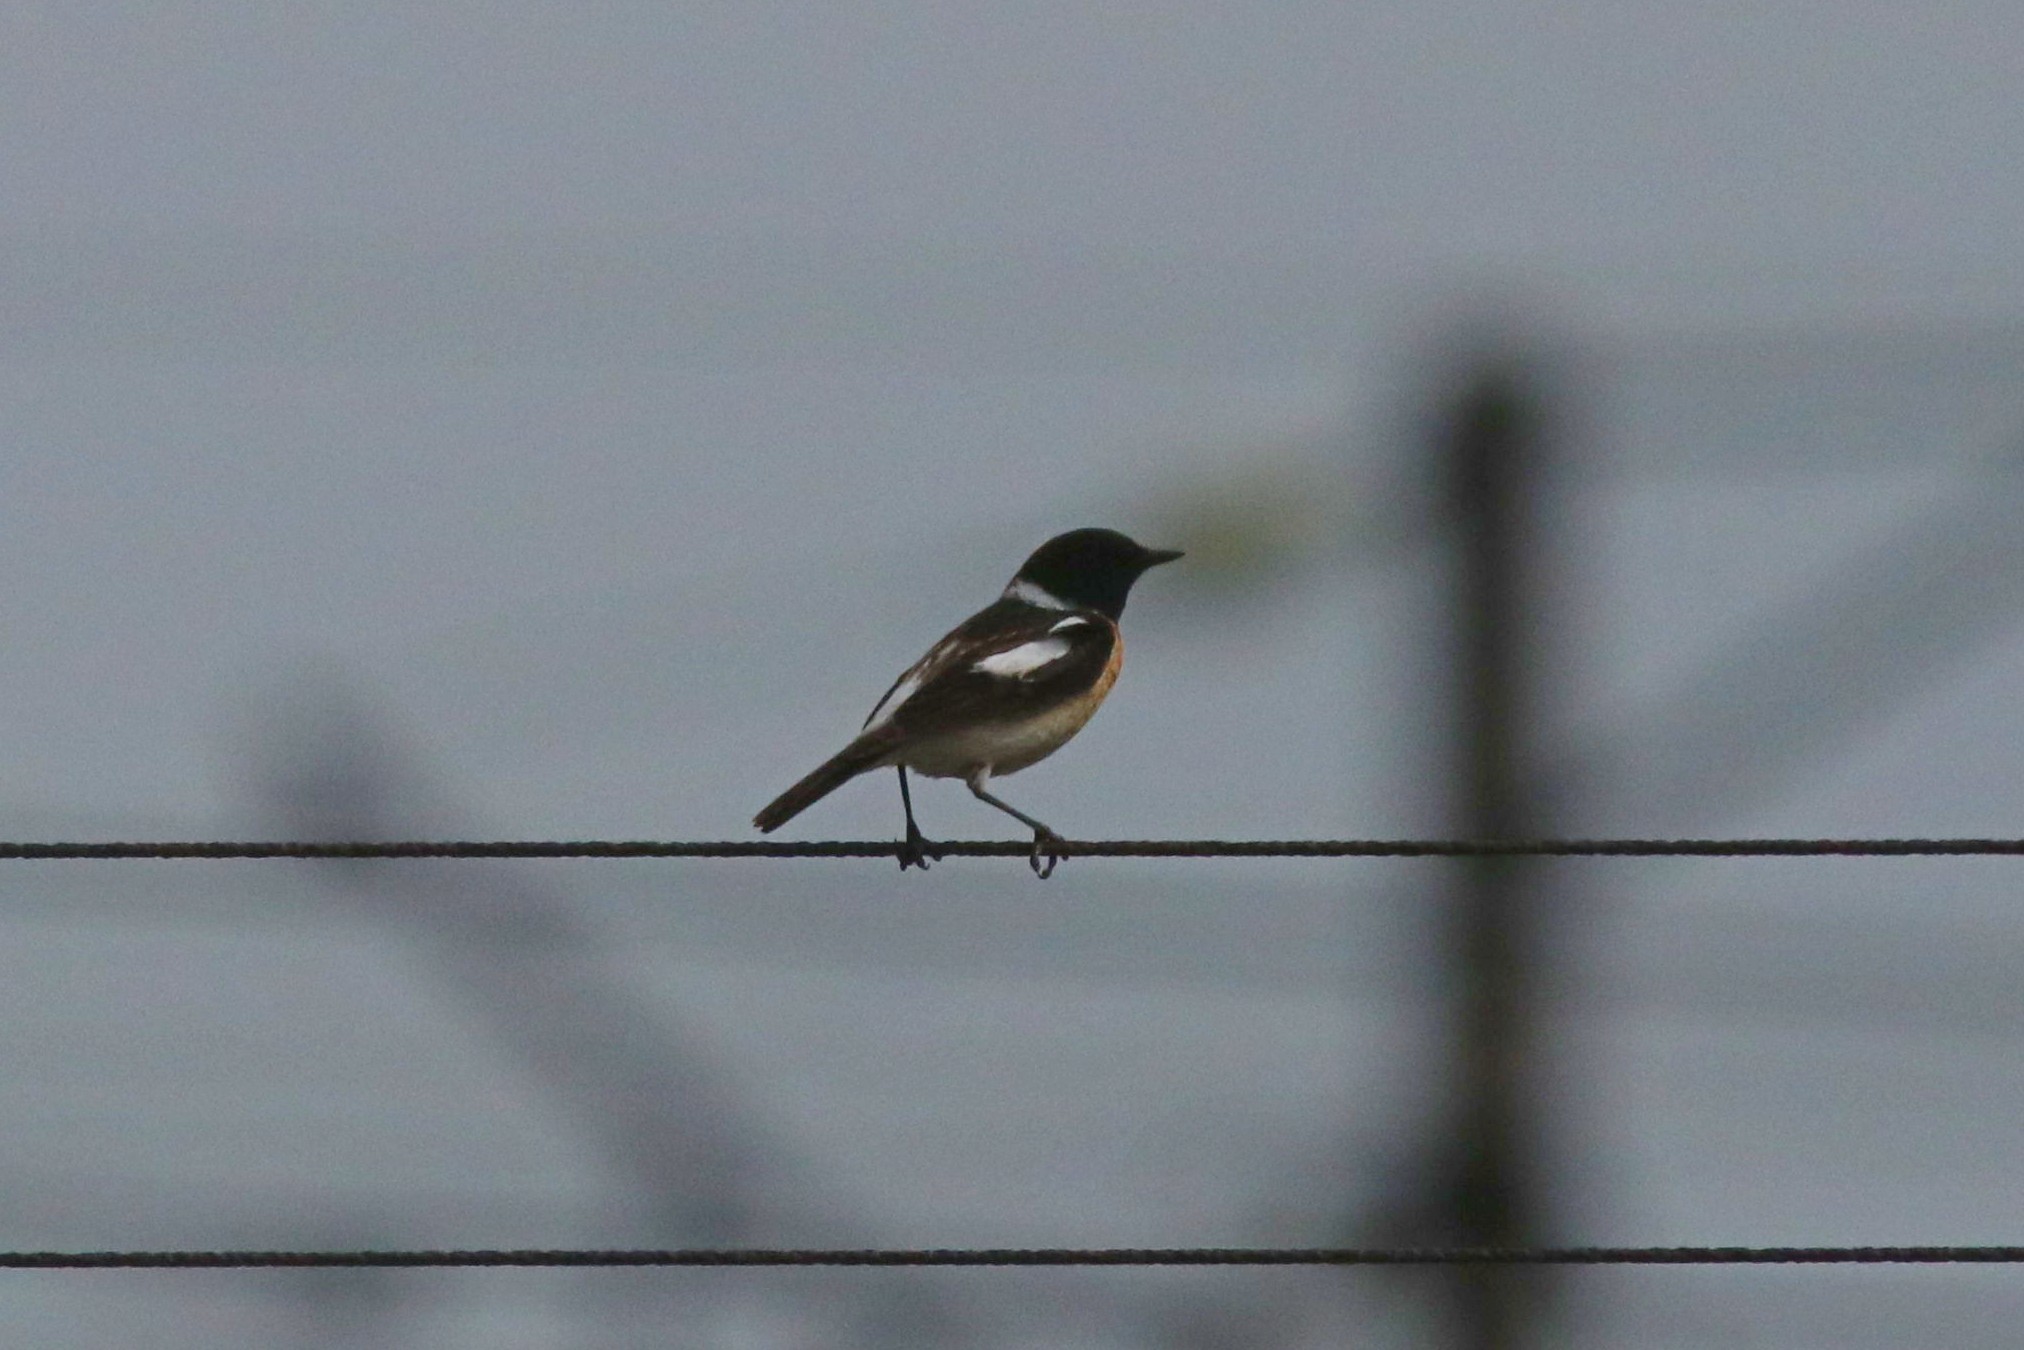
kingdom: Animalia
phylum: Chordata
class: Aves
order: Passeriformes
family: Muscicapidae
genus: Saxicola
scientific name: Saxicola maurus
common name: Siberian stonechat
